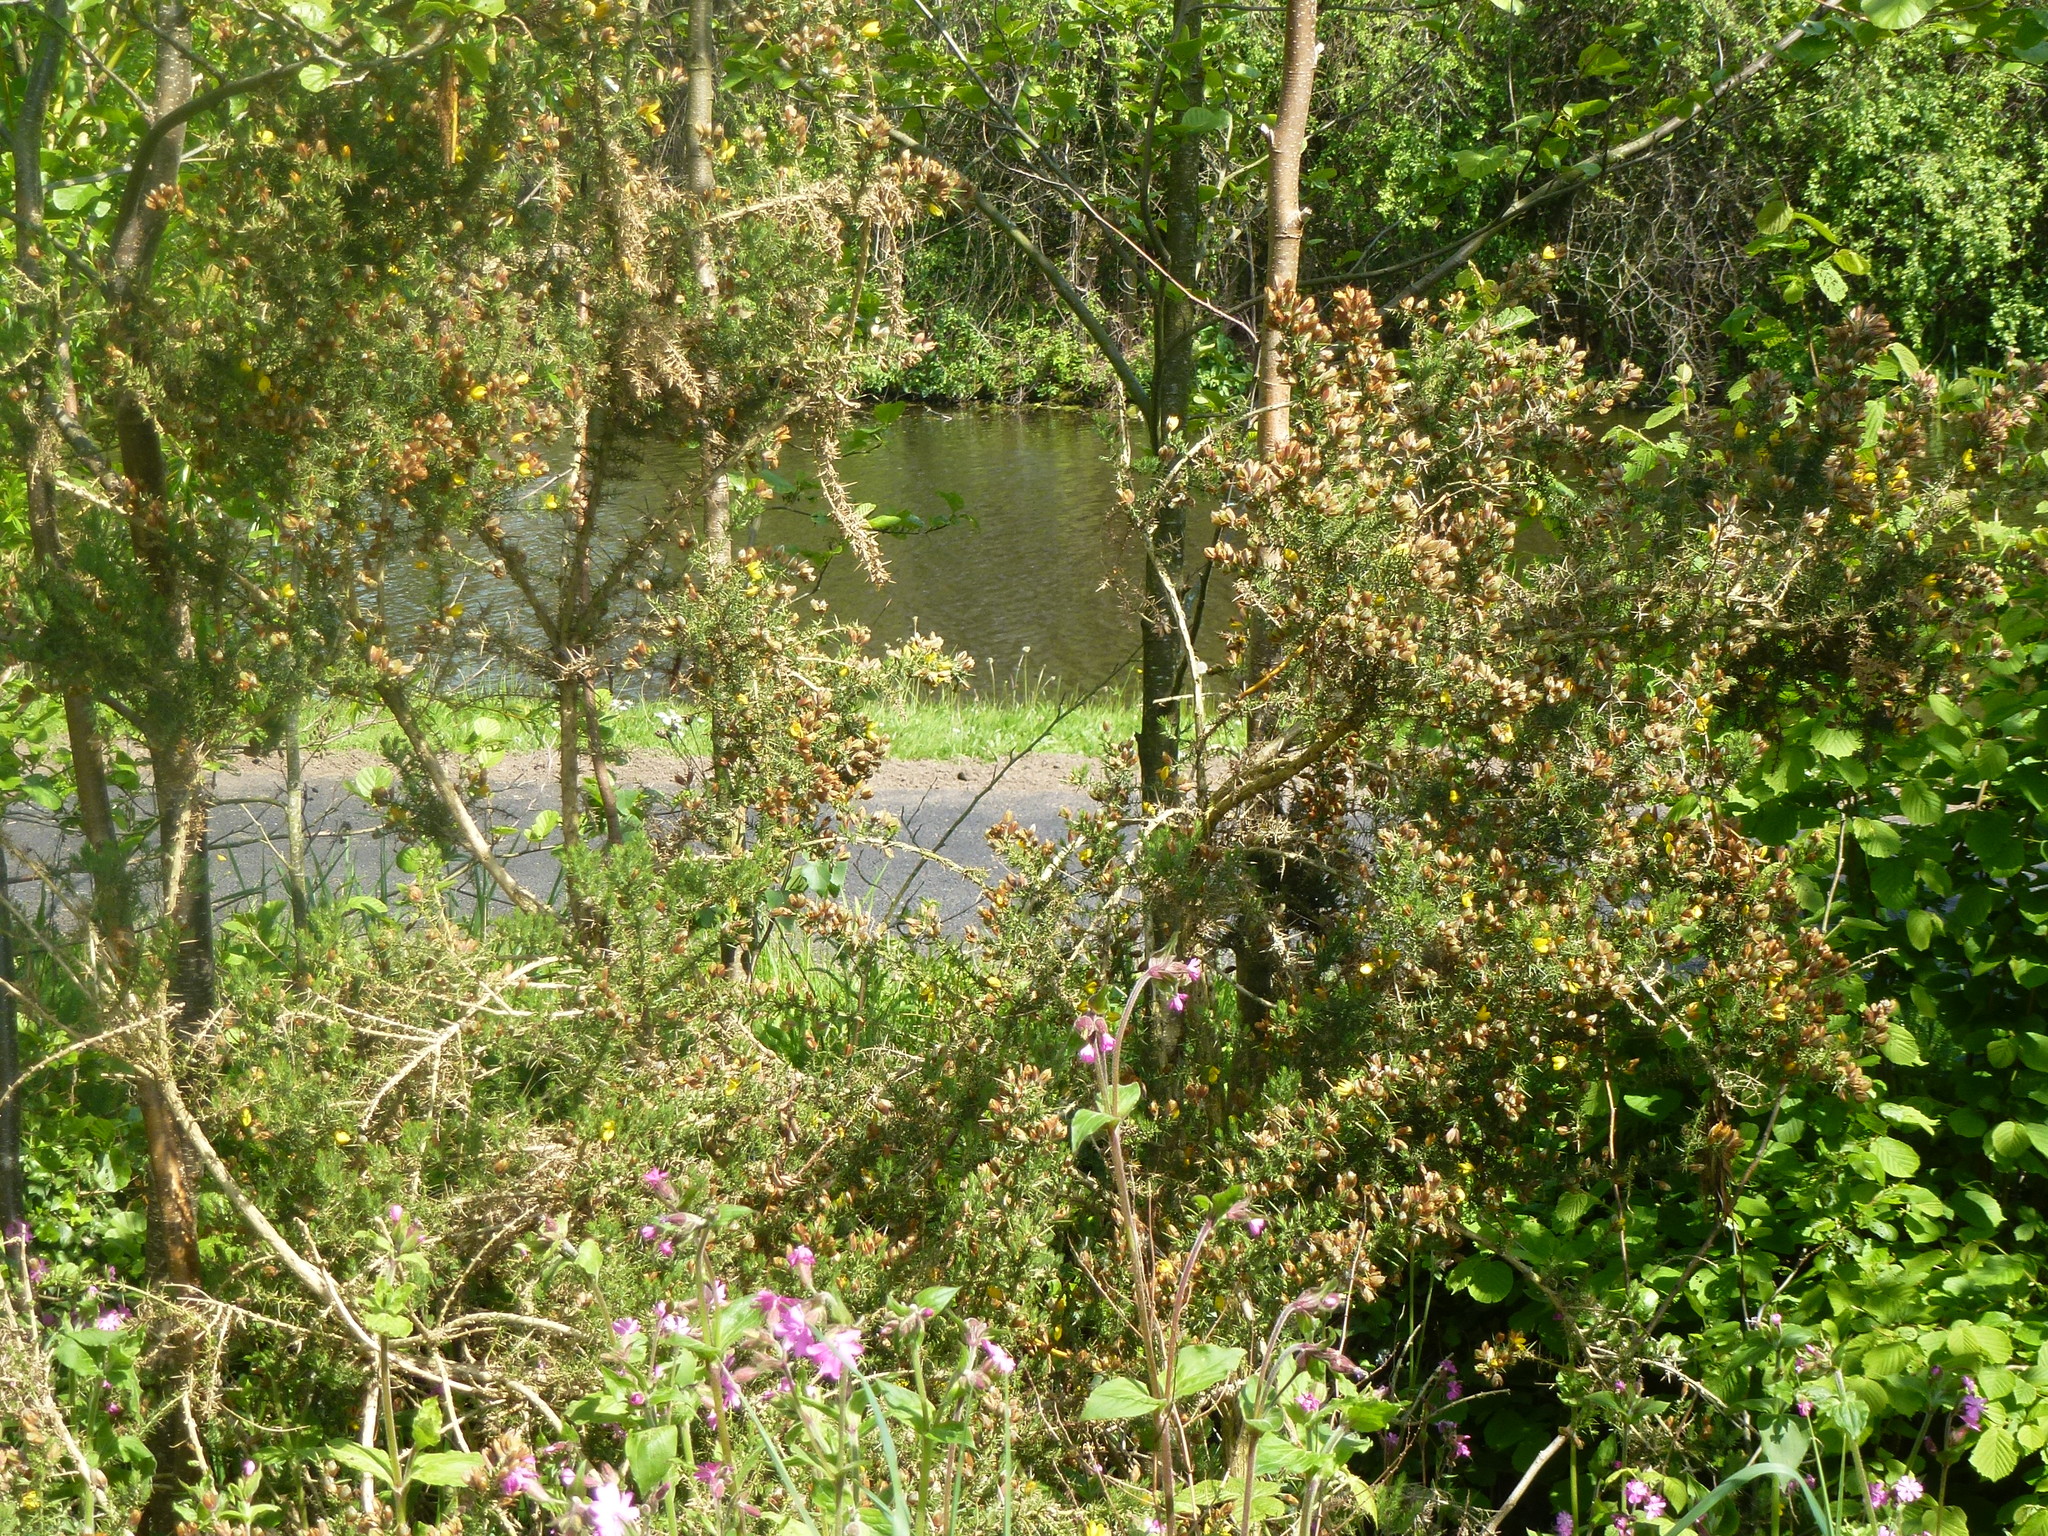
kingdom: Plantae
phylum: Tracheophyta
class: Magnoliopsida
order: Fabales
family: Fabaceae
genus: Ulex
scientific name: Ulex europaeus
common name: Common gorse
